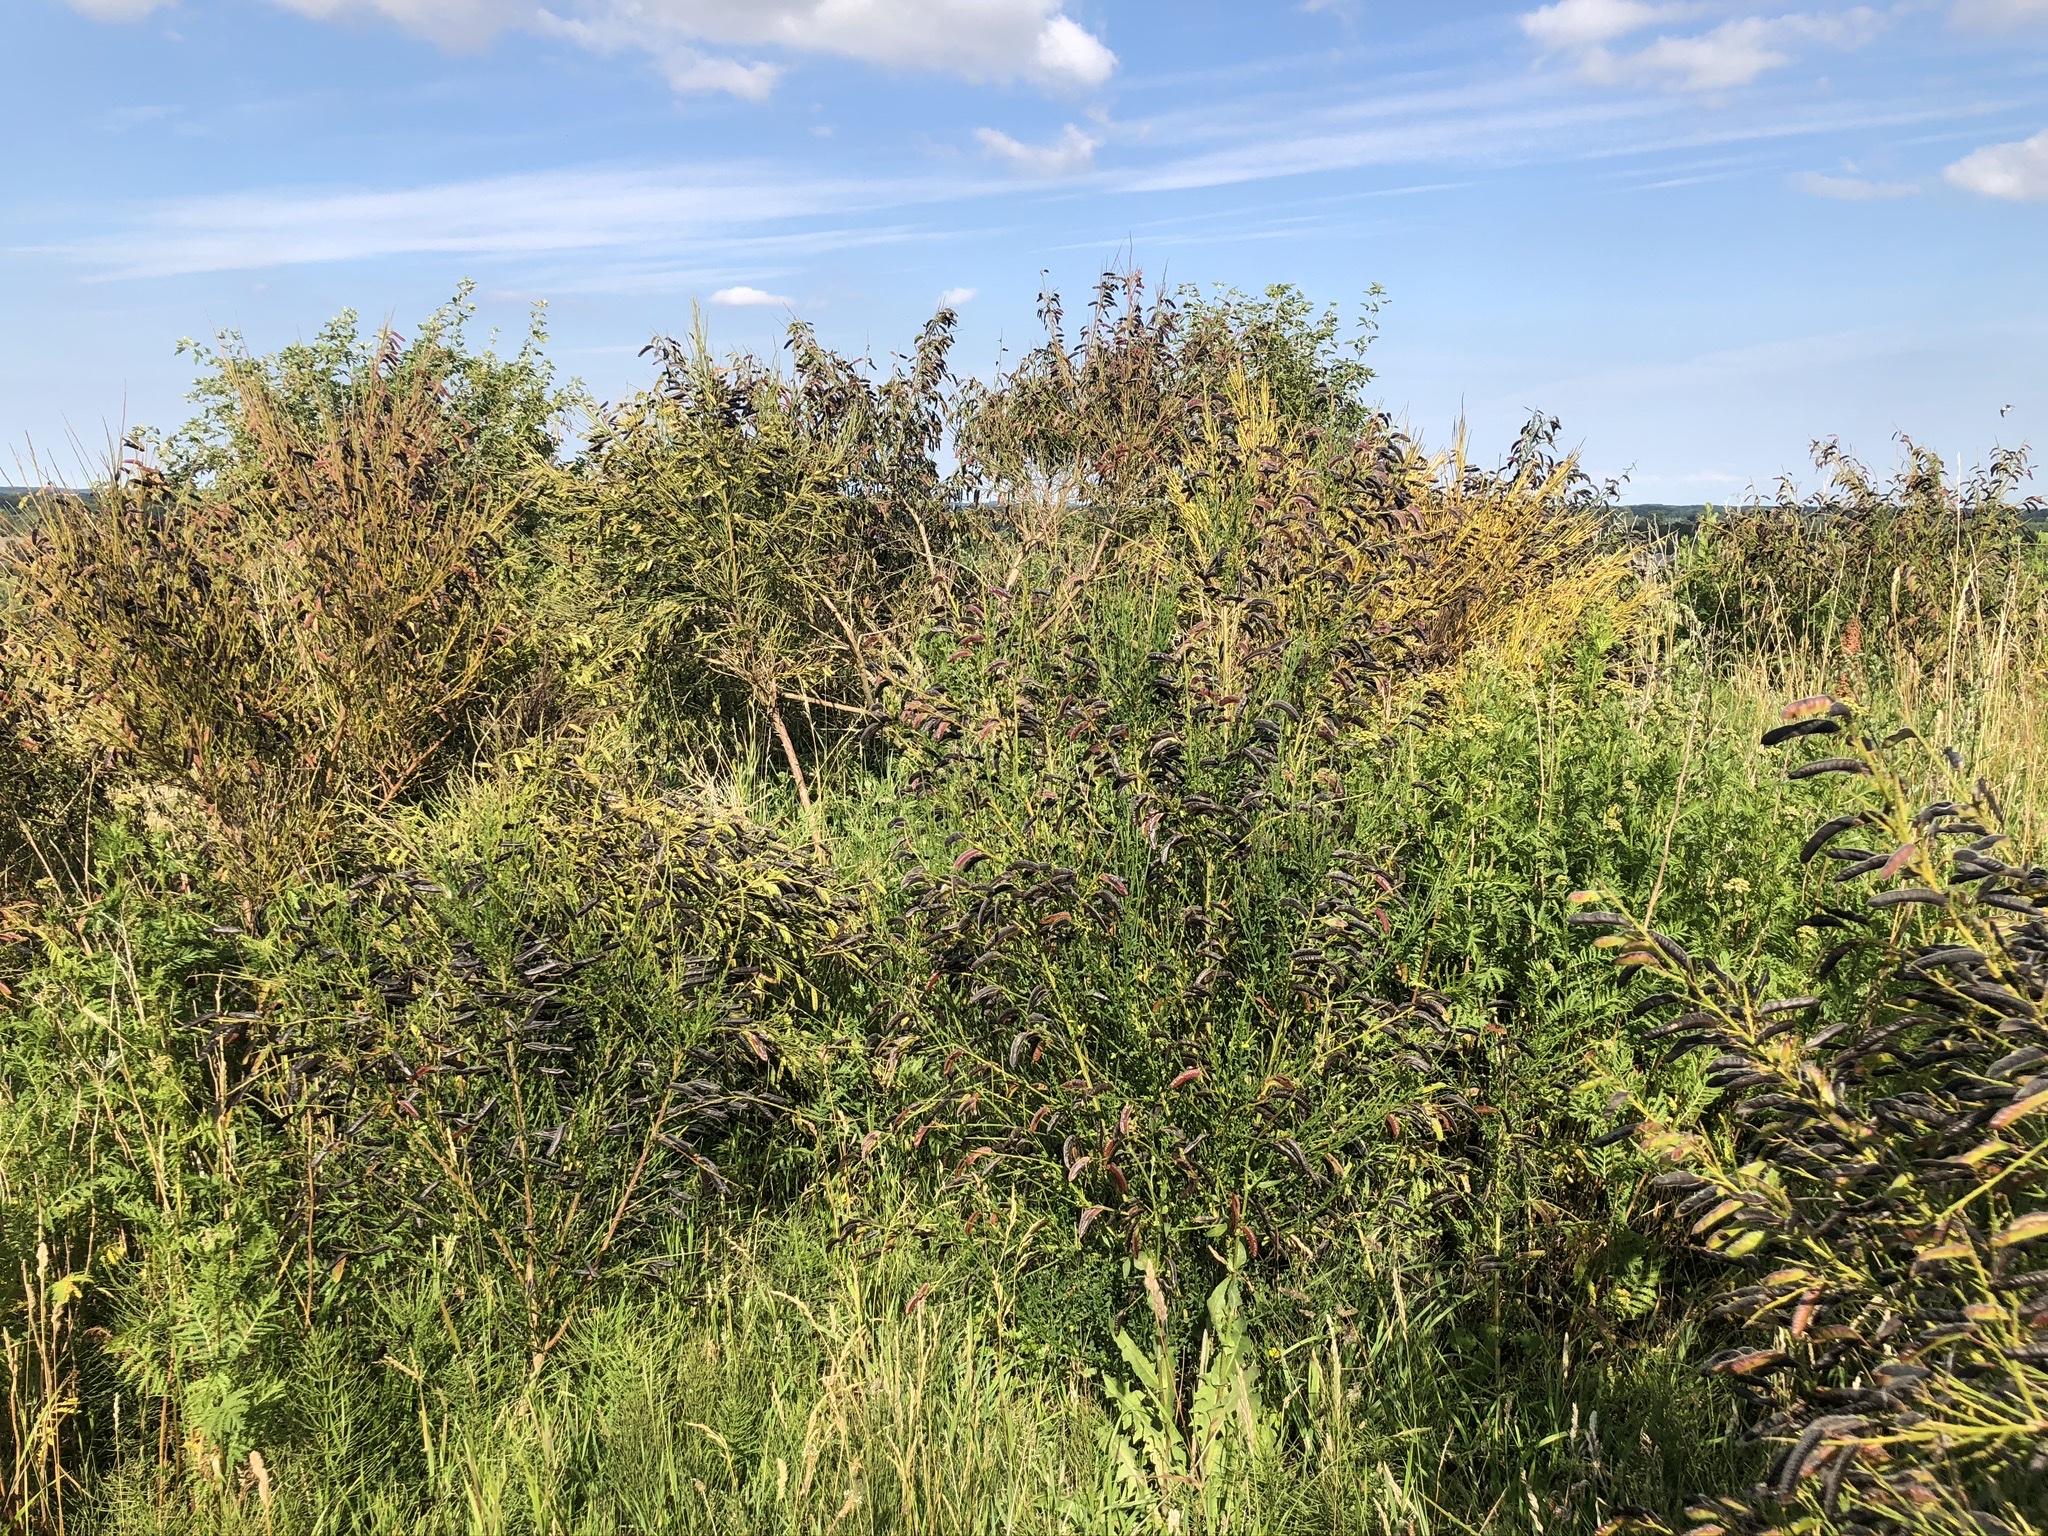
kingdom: Plantae
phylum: Tracheophyta
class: Magnoliopsida
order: Fabales
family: Fabaceae
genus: Cytisus
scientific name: Cytisus scoparius
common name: Scotch broom
